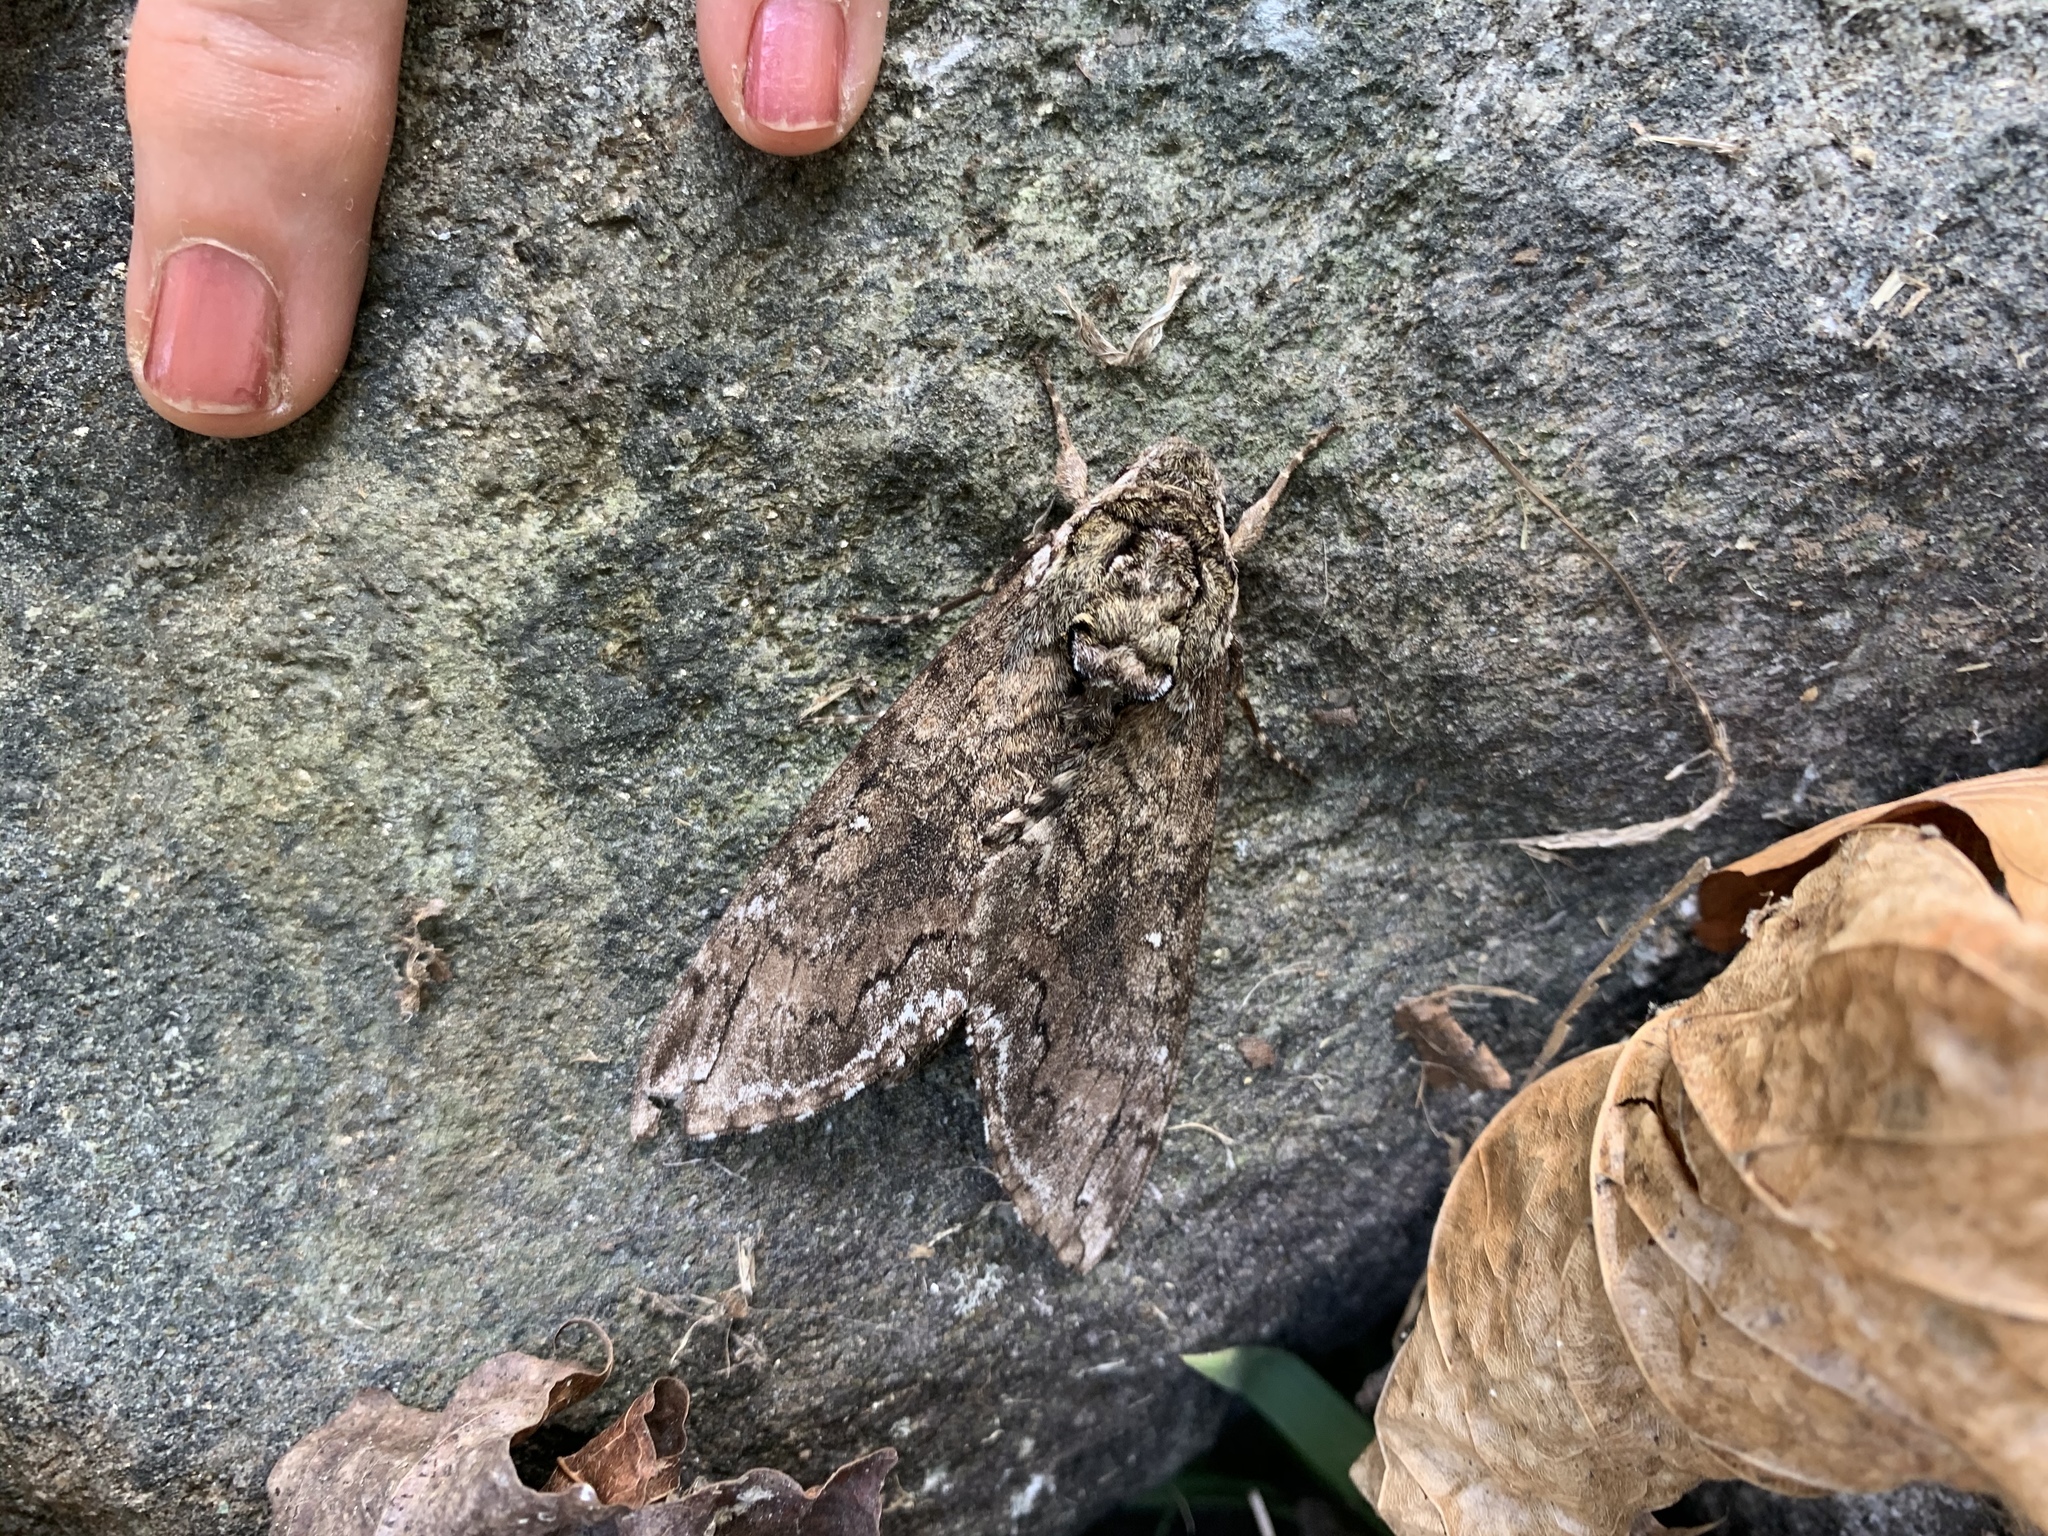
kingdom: Animalia
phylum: Arthropoda
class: Insecta
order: Lepidoptera
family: Sphingidae
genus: Manduca
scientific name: Manduca sexta
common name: Carolina sphinx
